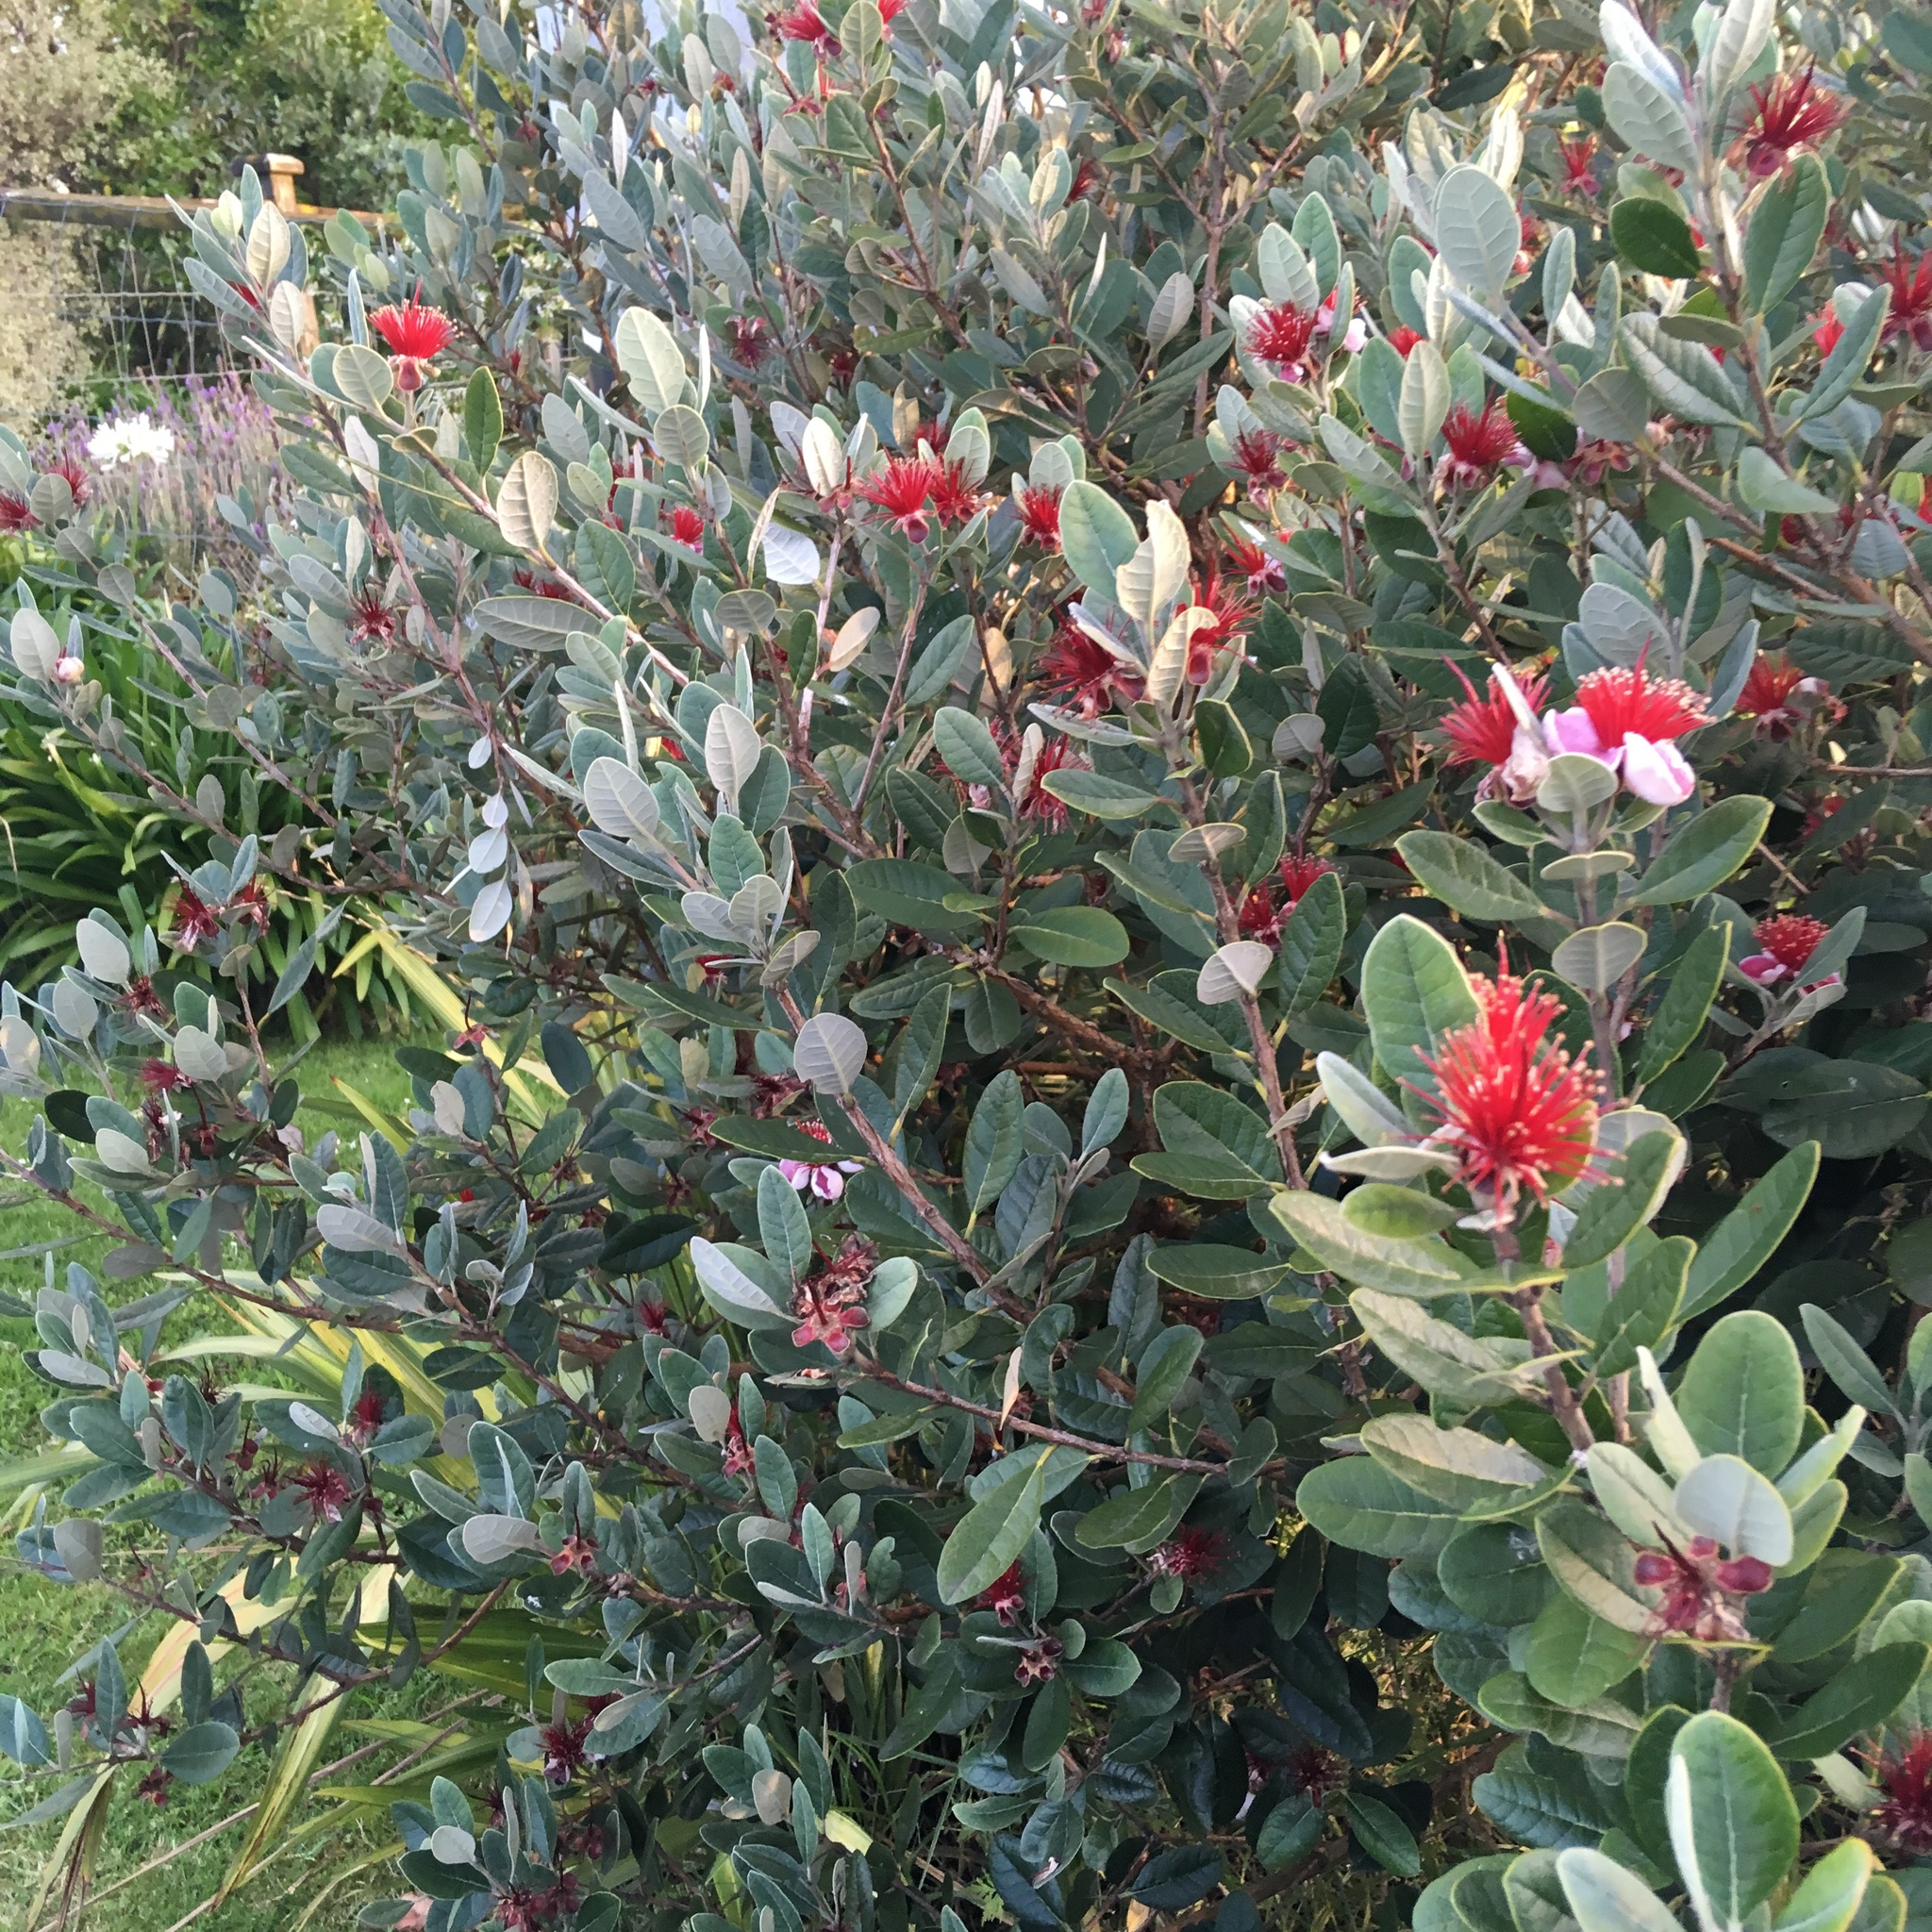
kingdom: Plantae
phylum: Tracheophyta
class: Magnoliopsida
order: Myrtales
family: Myrtaceae
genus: Feijoa
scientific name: Feijoa sellowiana
